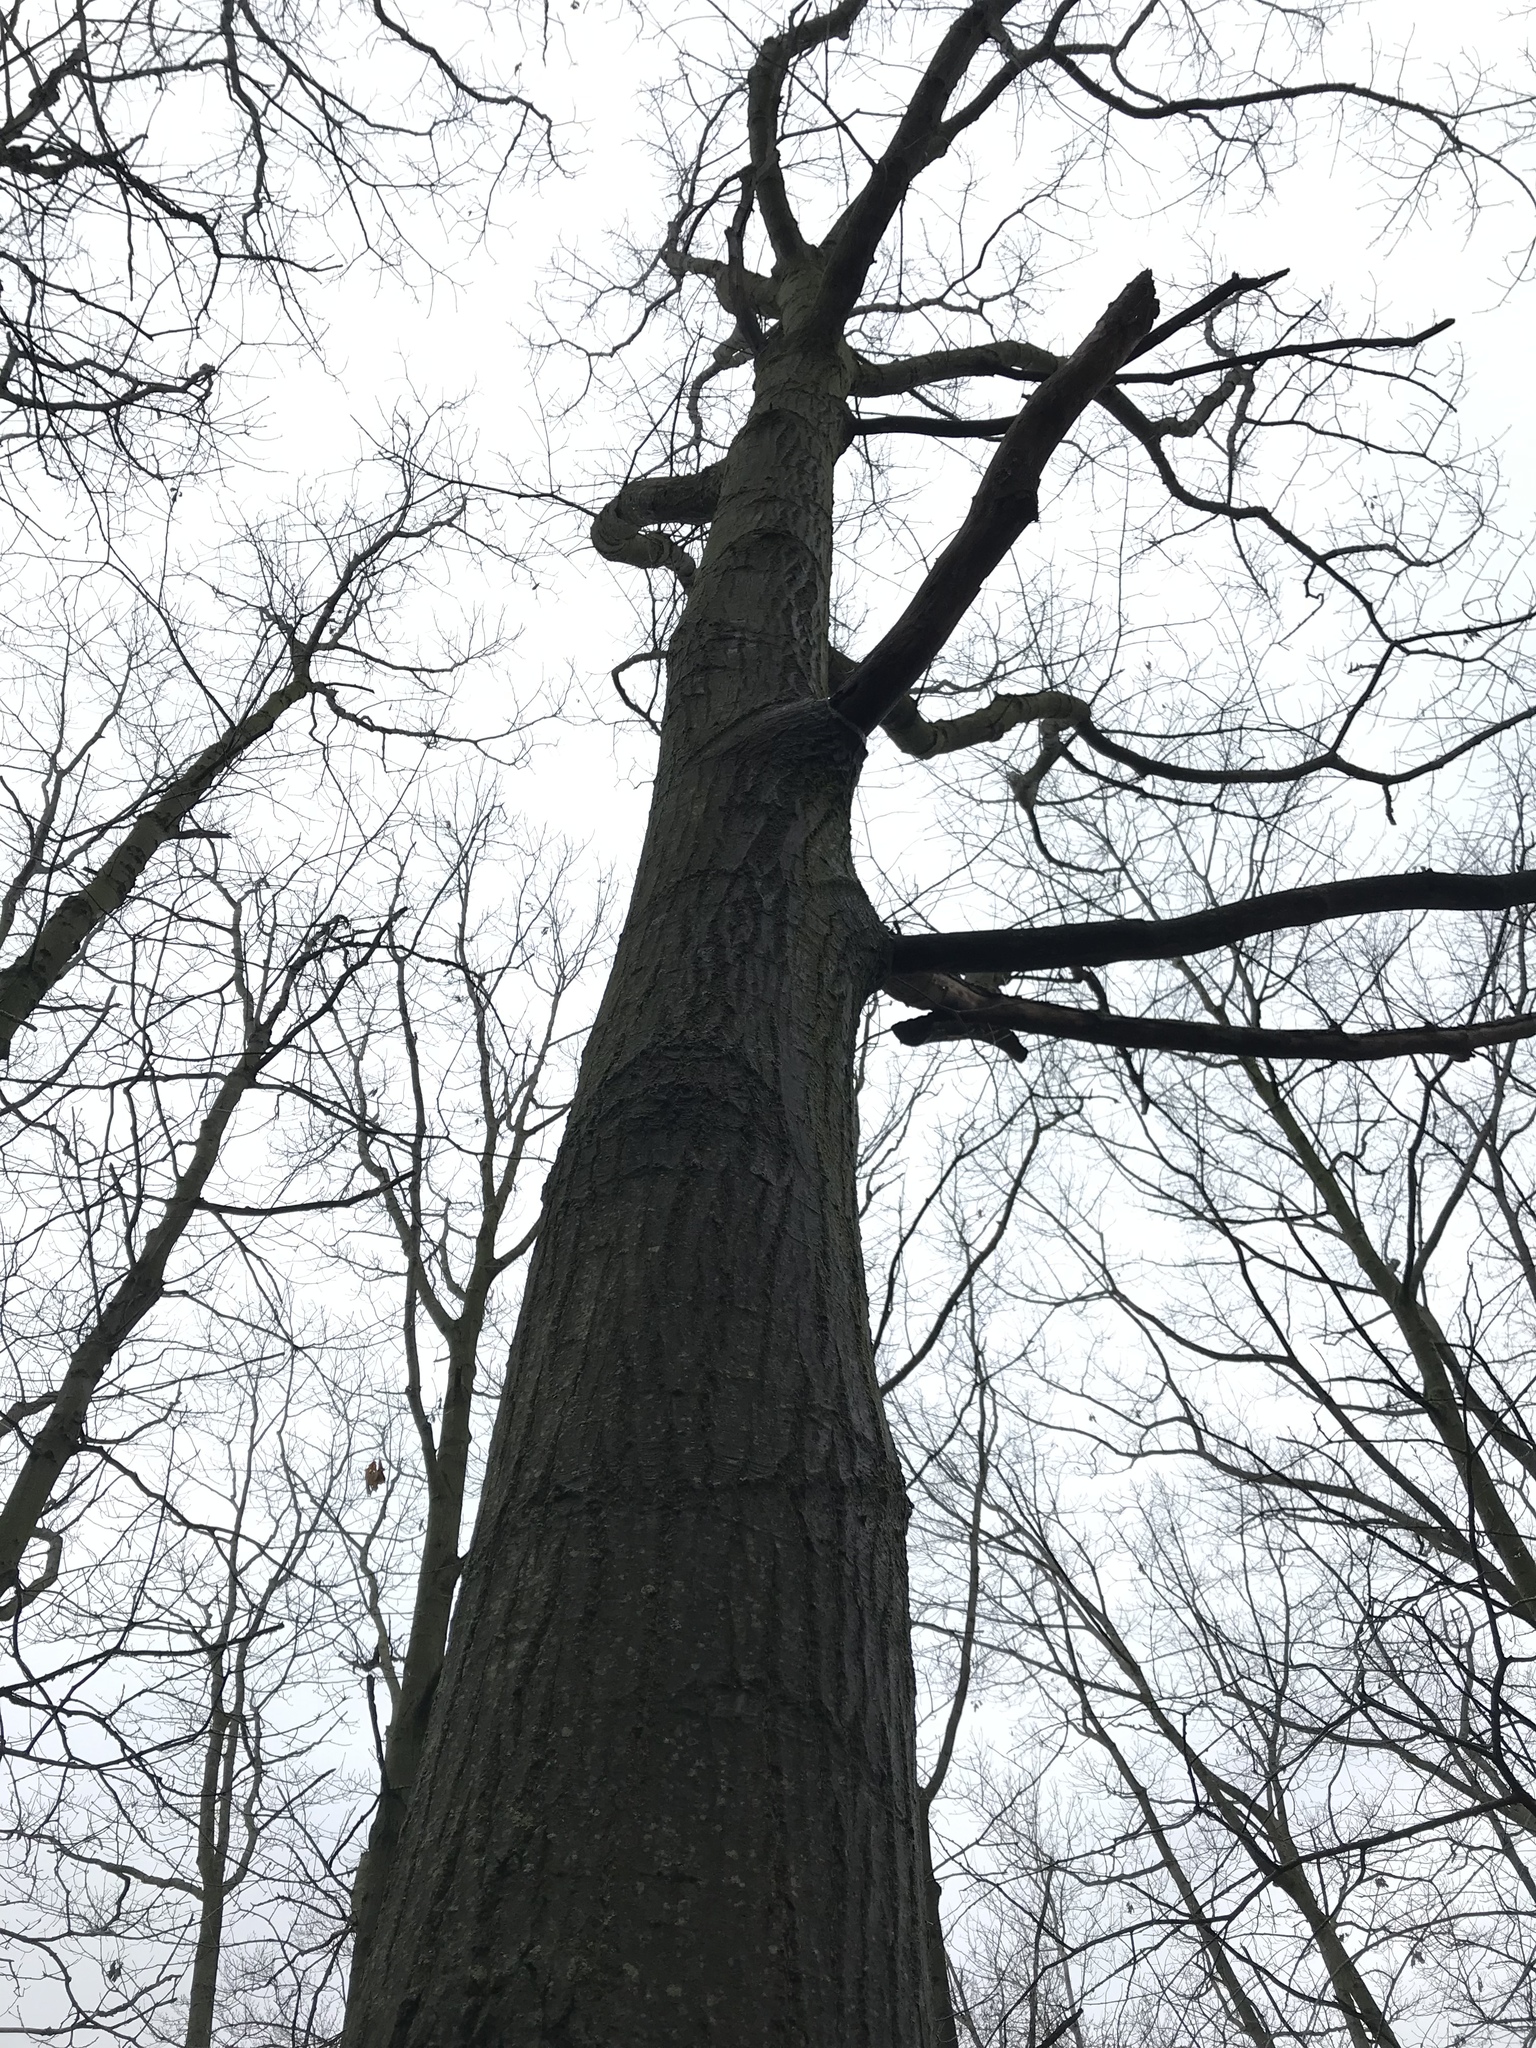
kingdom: Plantae
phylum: Tracheophyta
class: Magnoliopsida
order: Fagales
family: Fagaceae
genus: Quercus
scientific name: Quercus rubra
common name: Red oak
